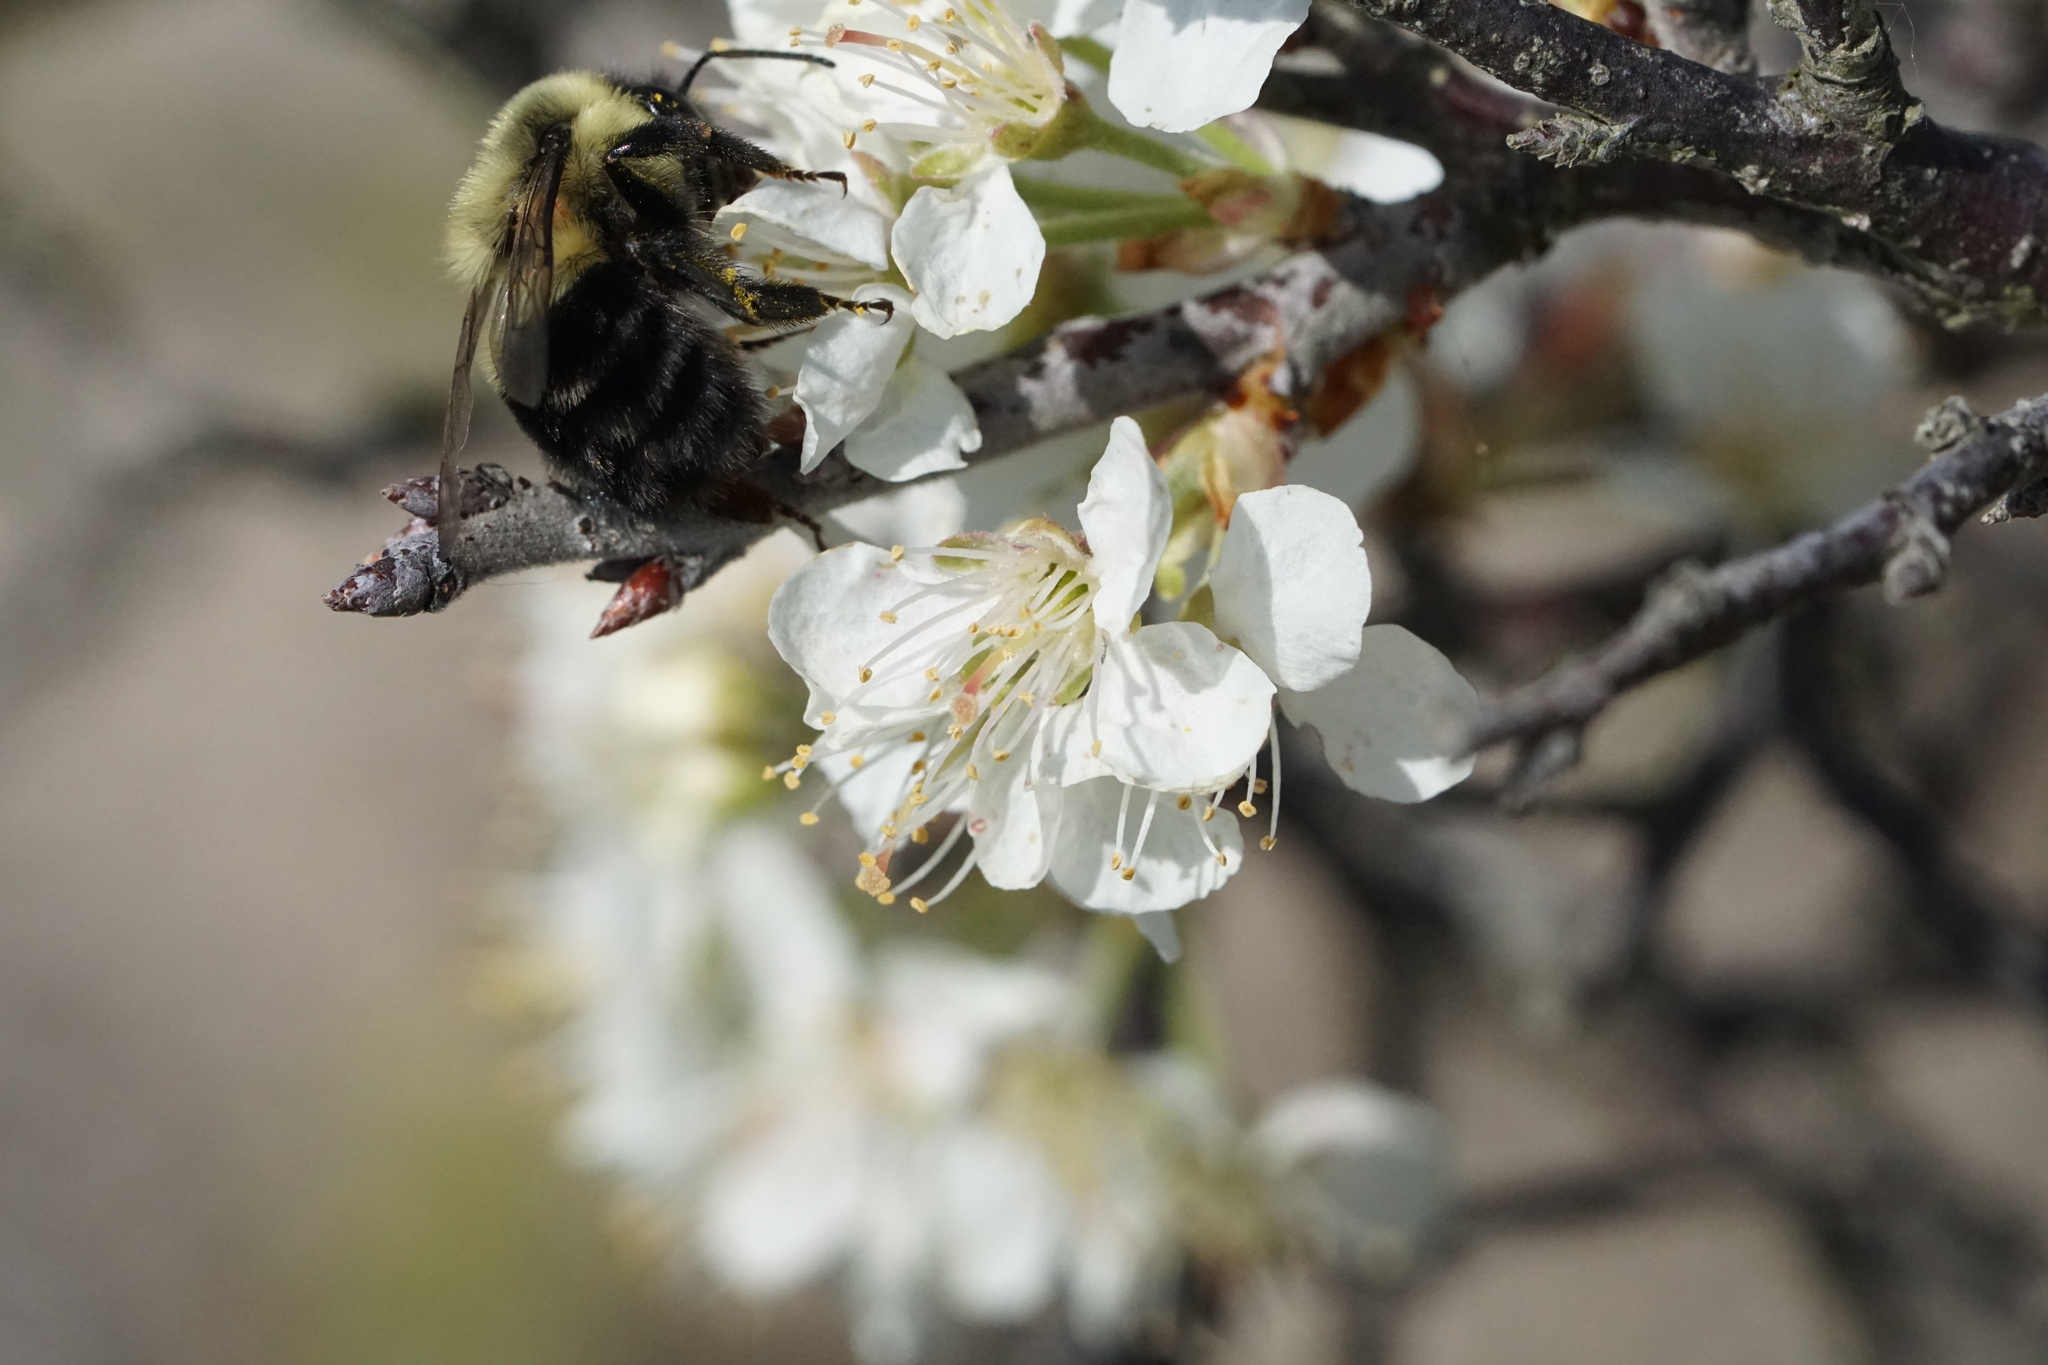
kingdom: Animalia
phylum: Arthropoda
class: Insecta
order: Hymenoptera
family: Apidae
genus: Bombus
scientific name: Bombus impatiens
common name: Common eastern bumble bee
